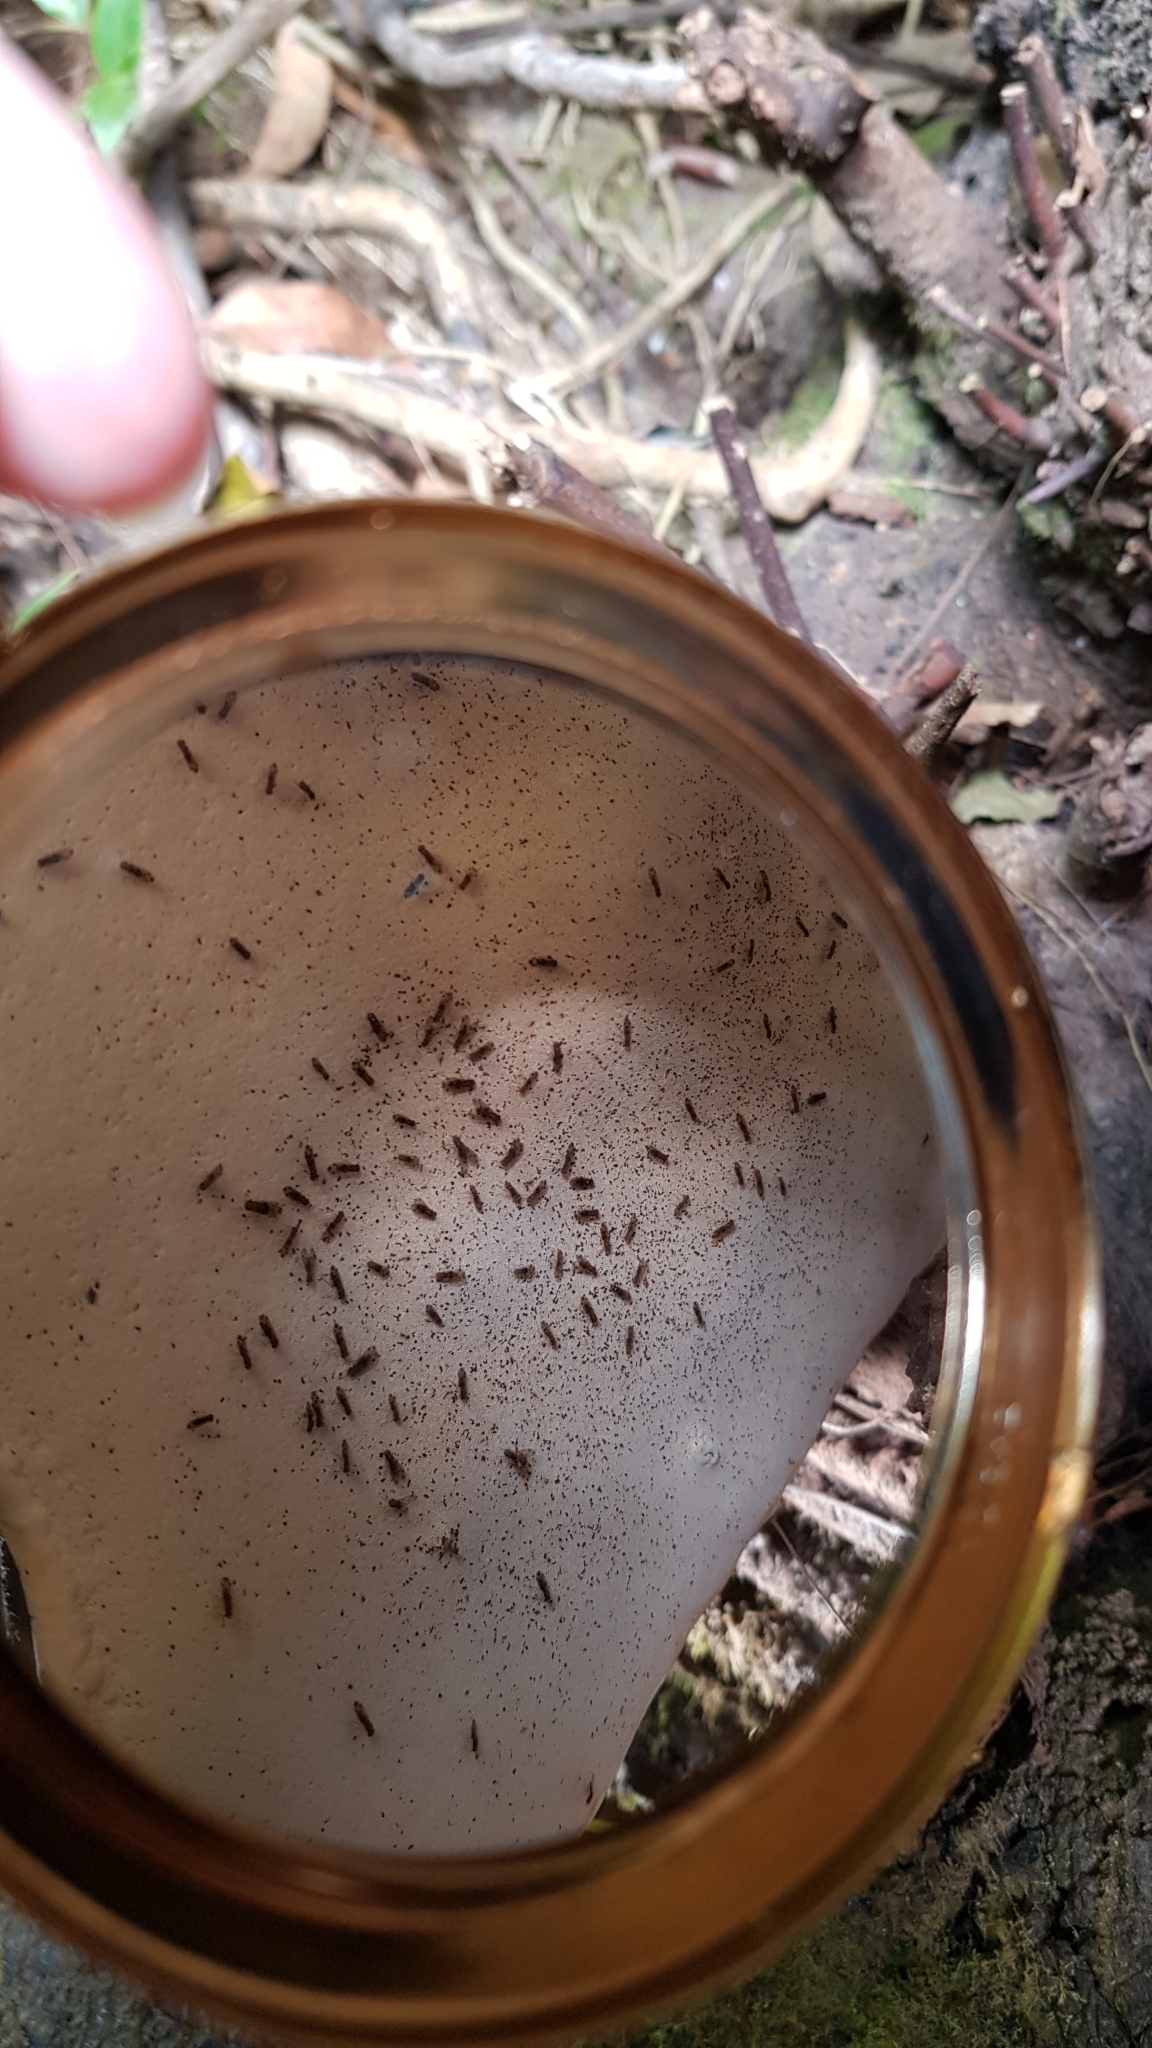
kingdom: Fungi
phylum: Basidiomycota
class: Agaricomycetes
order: Polyporales
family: Polyporaceae
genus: Ganoderma
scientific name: Ganoderma australe
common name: Southern bracket
